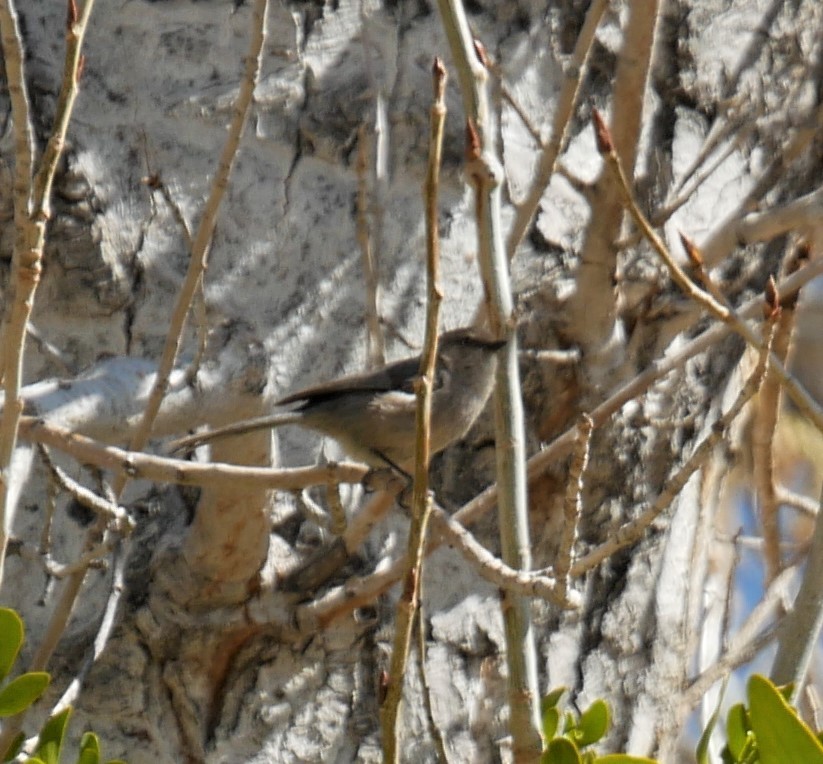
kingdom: Animalia
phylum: Chordata
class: Aves
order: Passeriformes
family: Aegithalidae
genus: Psaltriparus
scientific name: Psaltriparus minimus
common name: American bushtit
